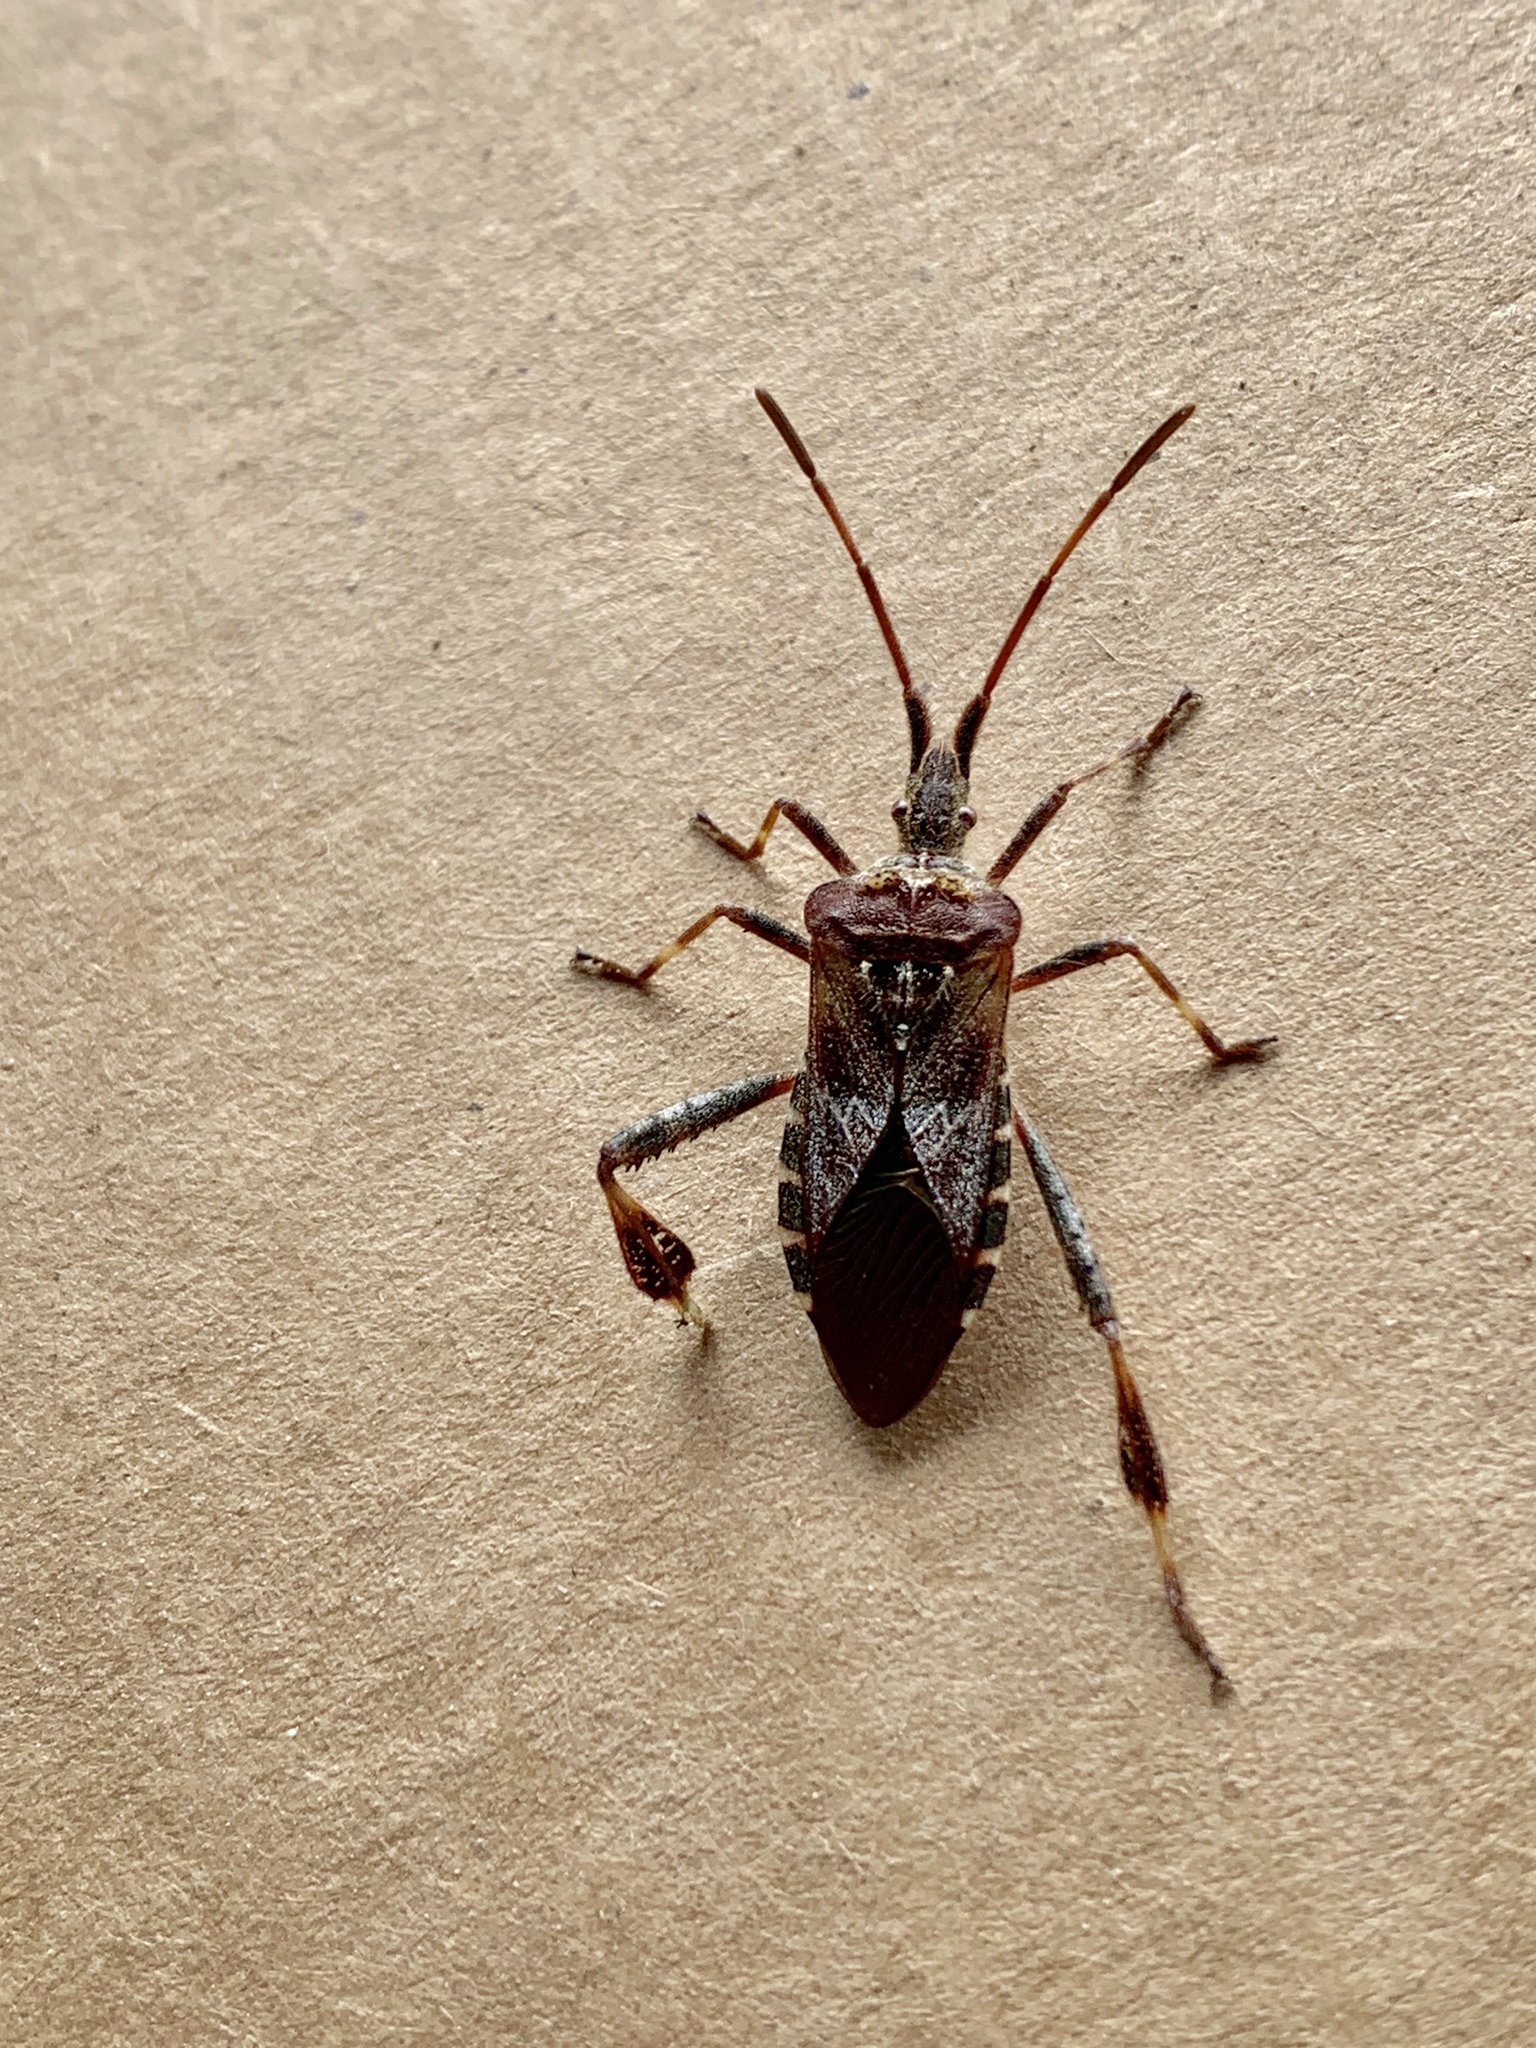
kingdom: Animalia
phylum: Arthropoda
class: Insecta
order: Hemiptera
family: Coreidae
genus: Leptoglossus
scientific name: Leptoglossus occidentalis
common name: Western conifer-seed bug
